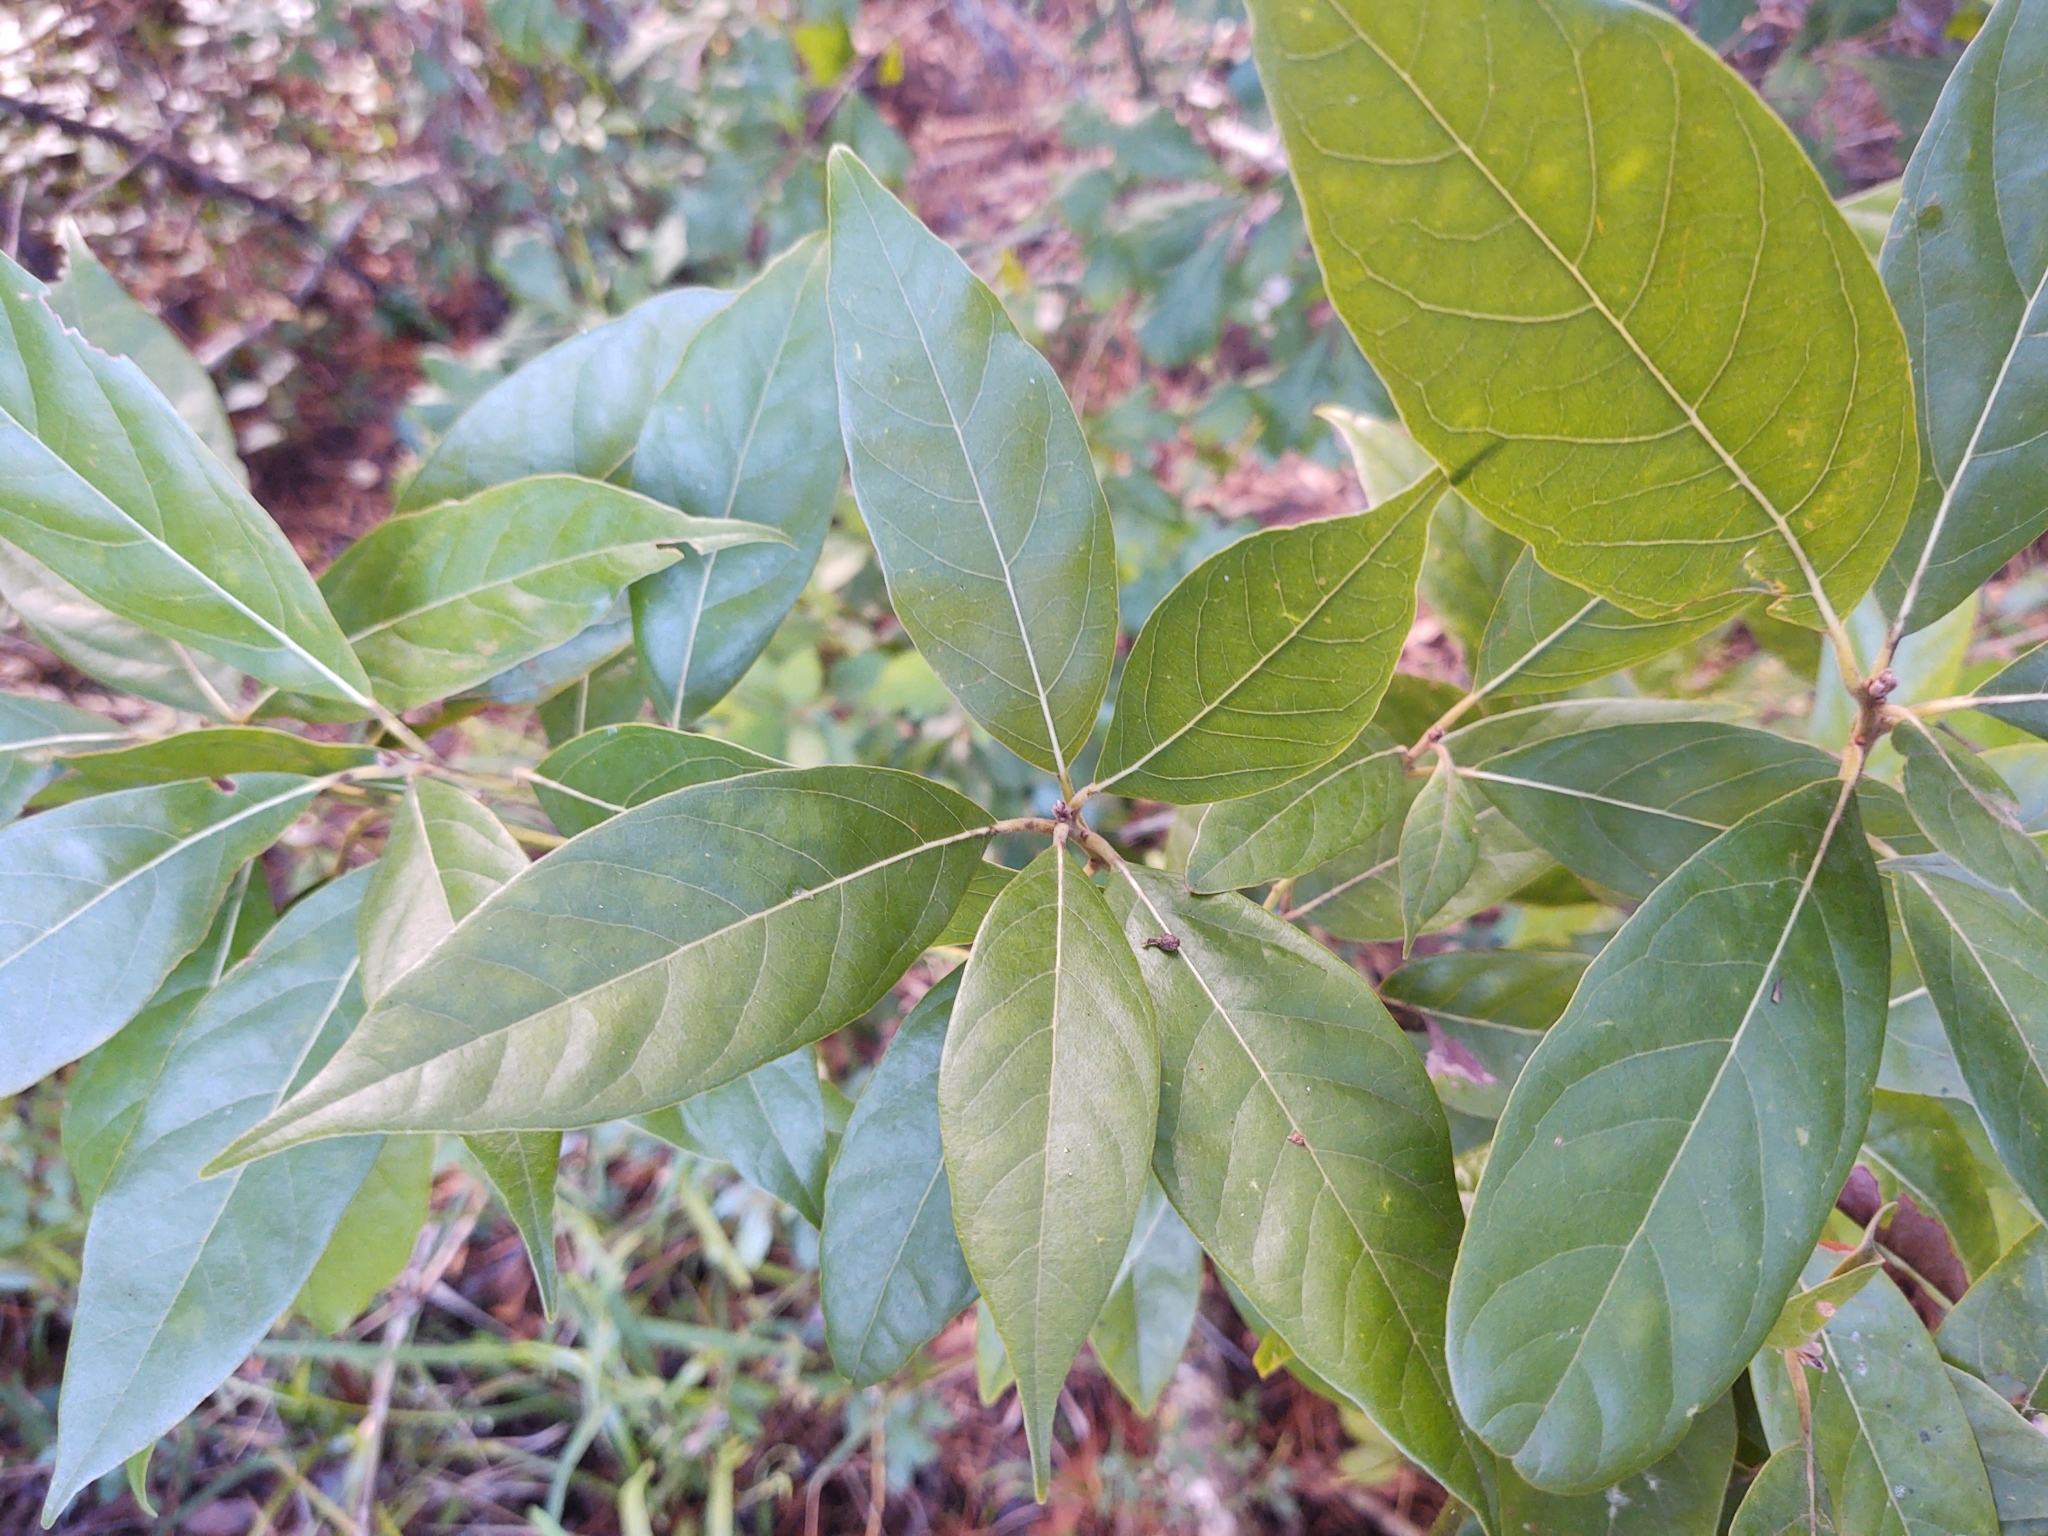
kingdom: Plantae
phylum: Tracheophyta
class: Magnoliopsida
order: Laurales
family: Lauraceae
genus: Persea
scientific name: Persea palustris
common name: Swampbay
